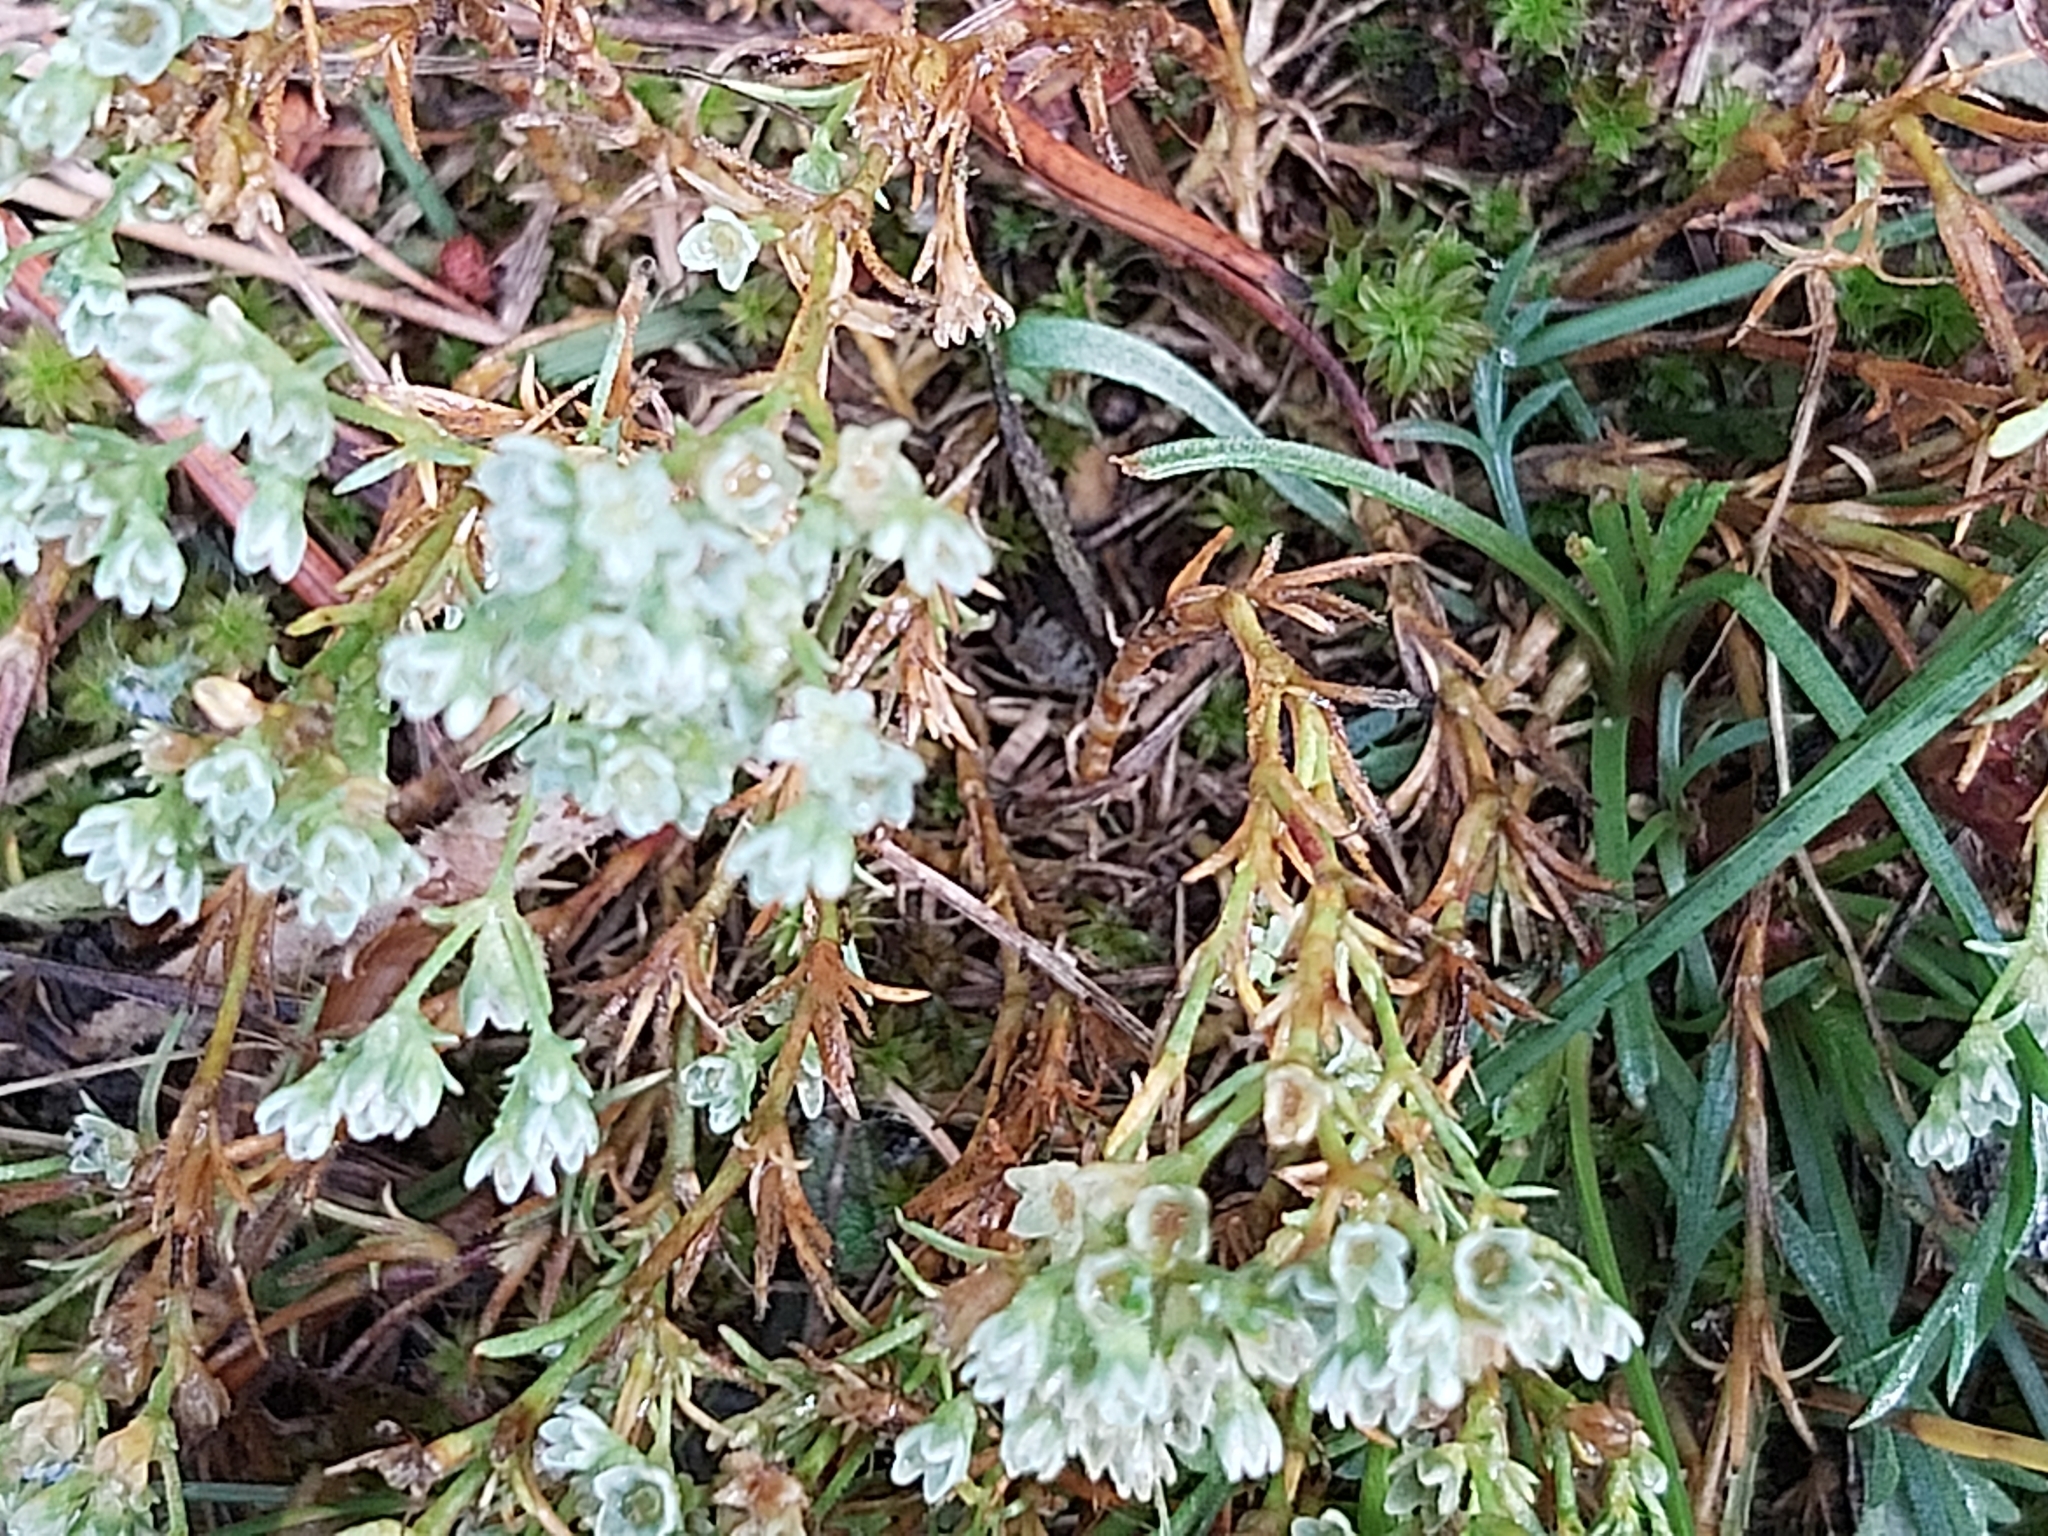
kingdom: Plantae
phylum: Tracheophyta
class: Magnoliopsida
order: Caryophyllales
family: Caryophyllaceae
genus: Scleranthus
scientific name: Scleranthus perennis
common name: Perennial knawel
